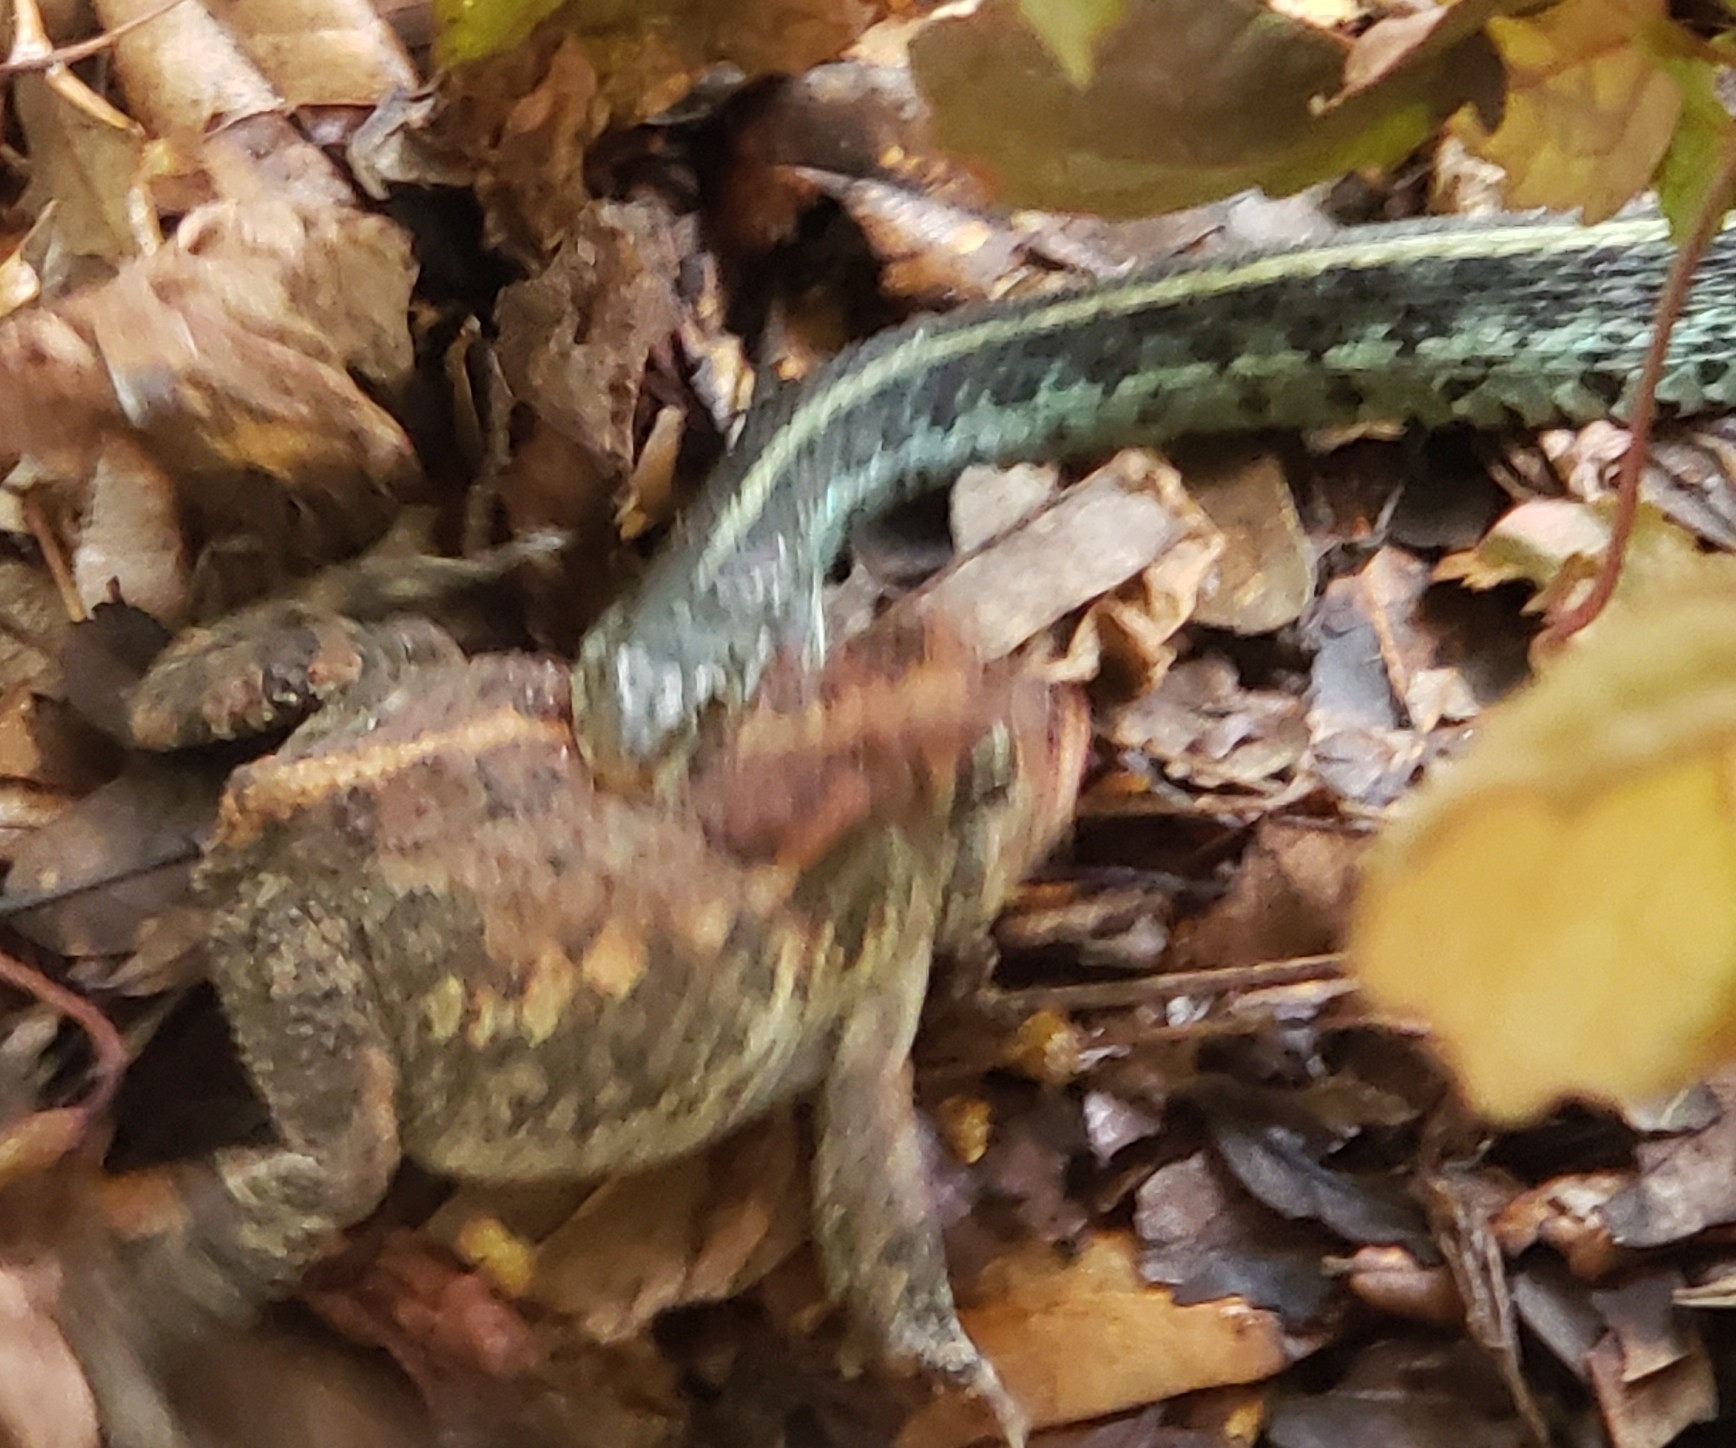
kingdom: Animalia
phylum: Chordata
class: Squamata
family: Colubridae
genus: Thamnophis
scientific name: Thamnophis sirtalis
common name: Common garter snake
